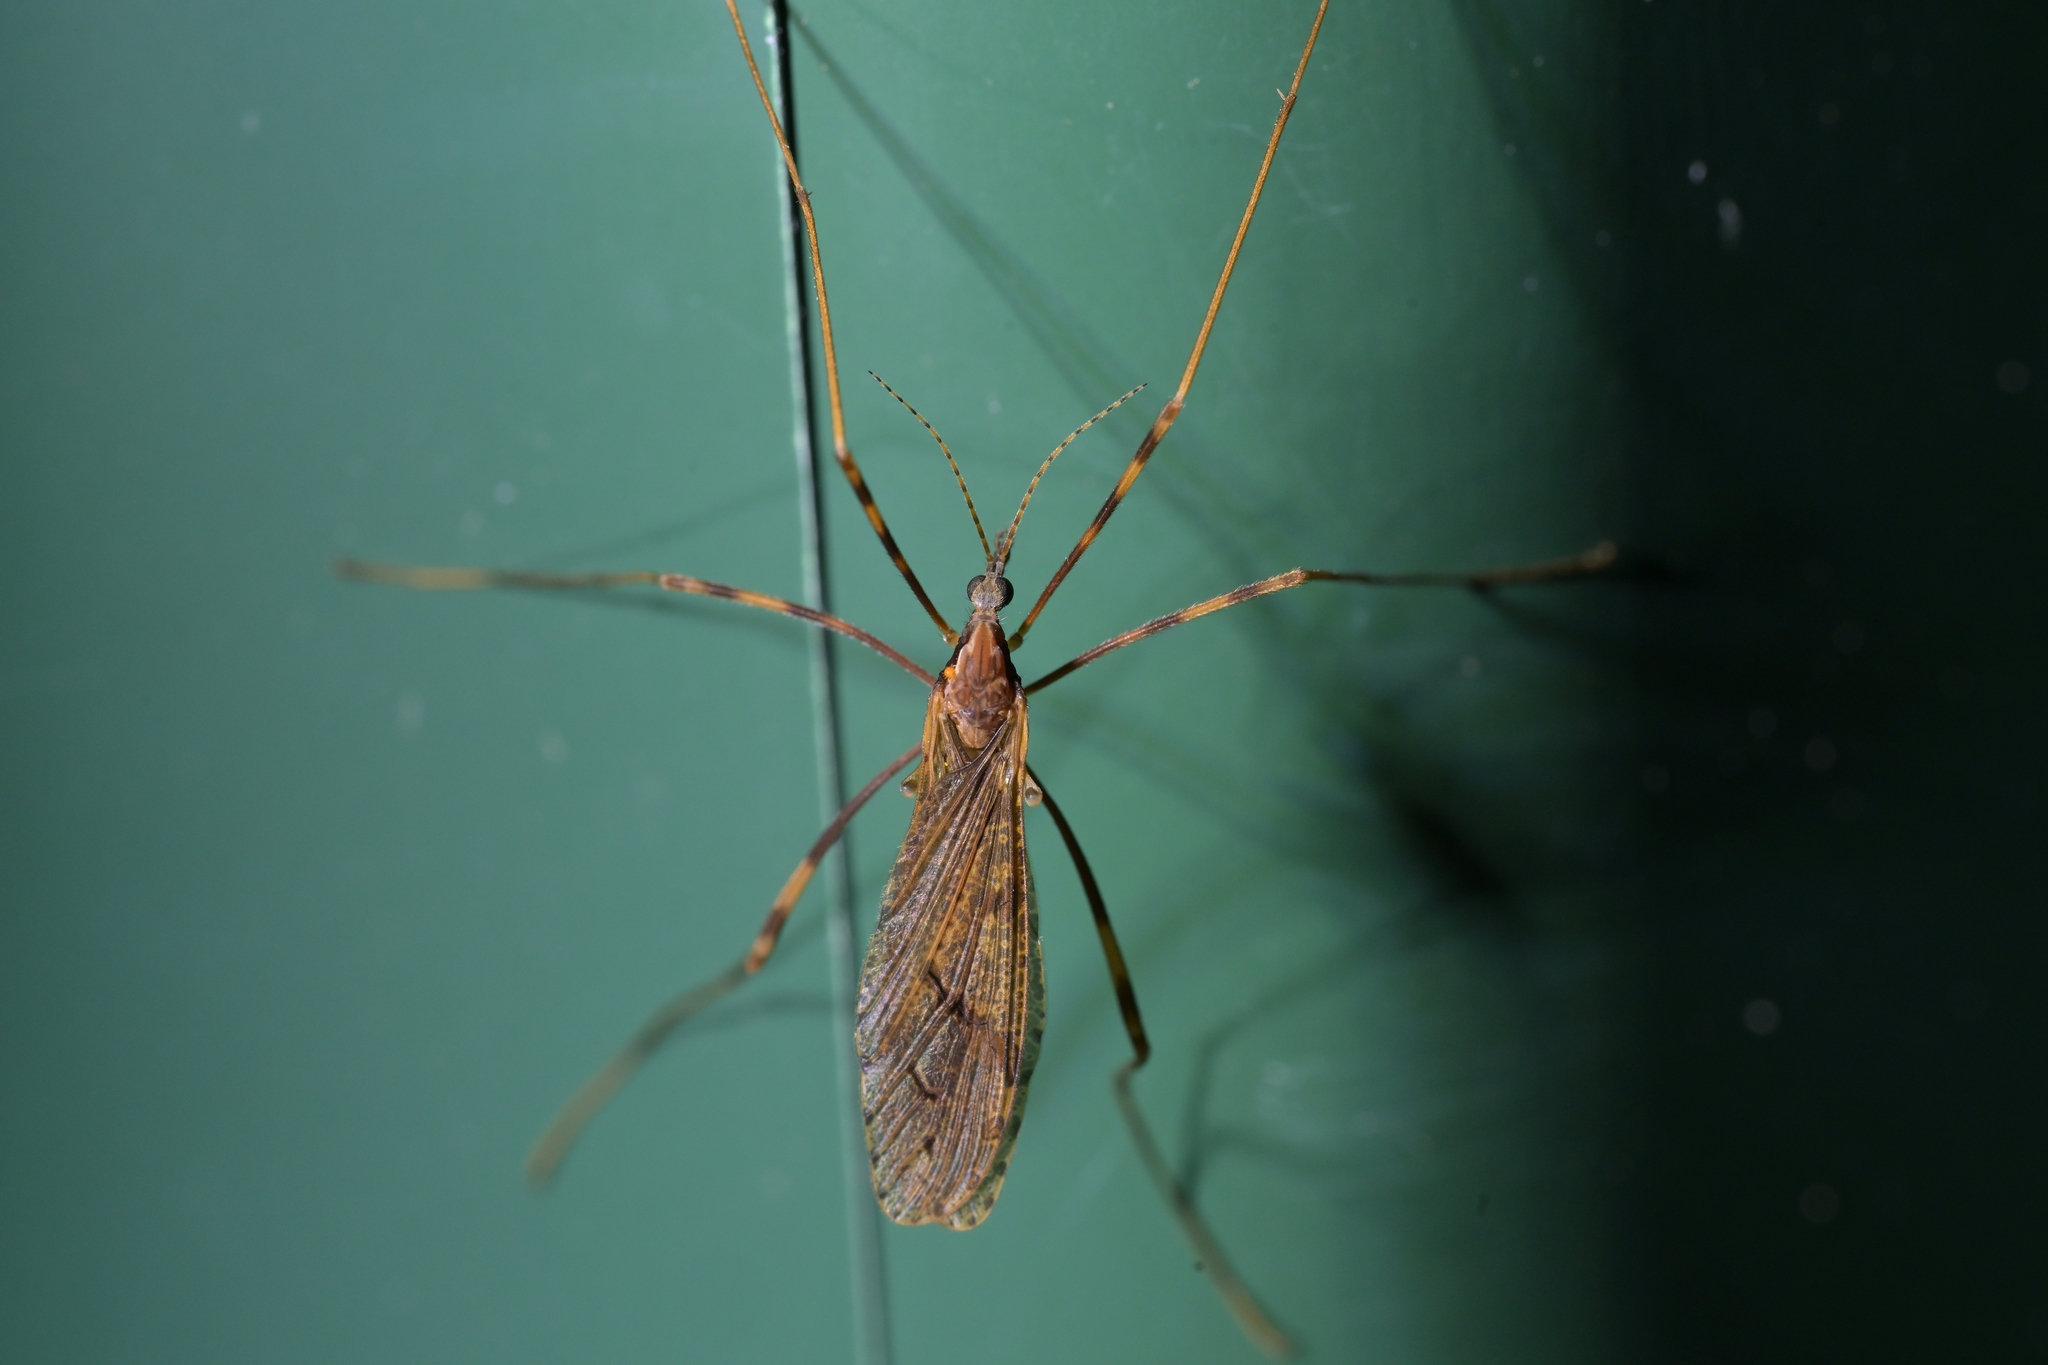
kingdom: Animalia
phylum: Arthropoda
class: Insecta
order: Diptera
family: Limoniidae
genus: Rhamphophila
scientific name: Rhamphophila lyrifera
